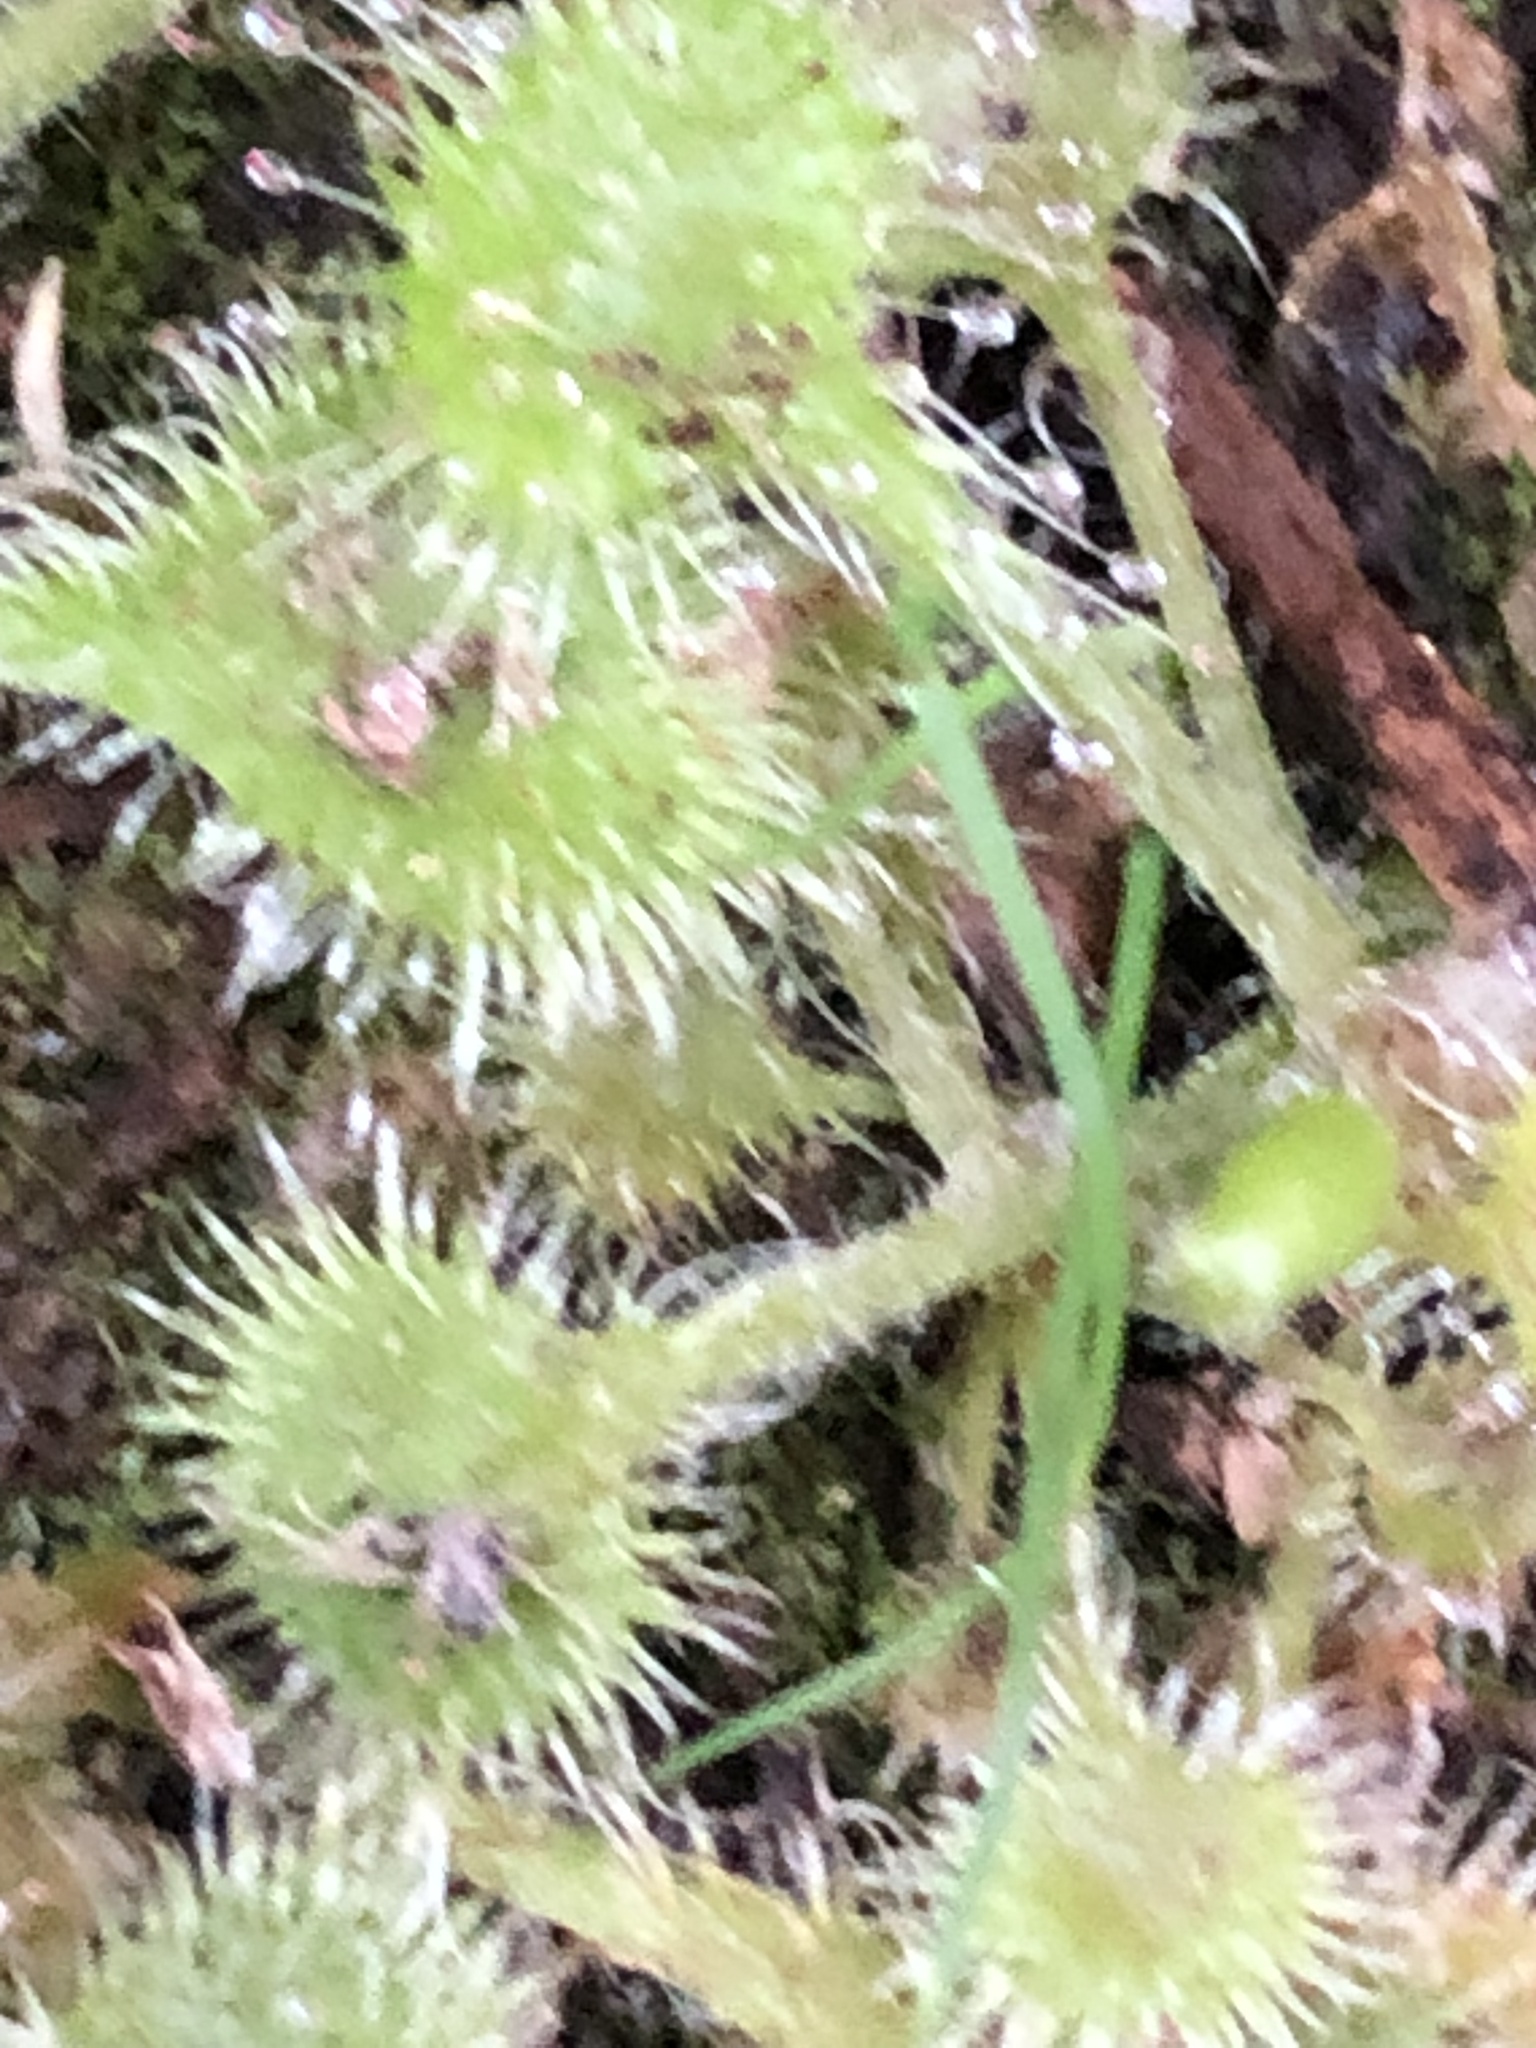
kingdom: Plantae
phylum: Tracheophyta
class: Magnoliopsida
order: Caryophyllales
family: Droseraceae
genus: Drosera
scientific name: Drosera rotundifolia
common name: Round-leaved sundew
